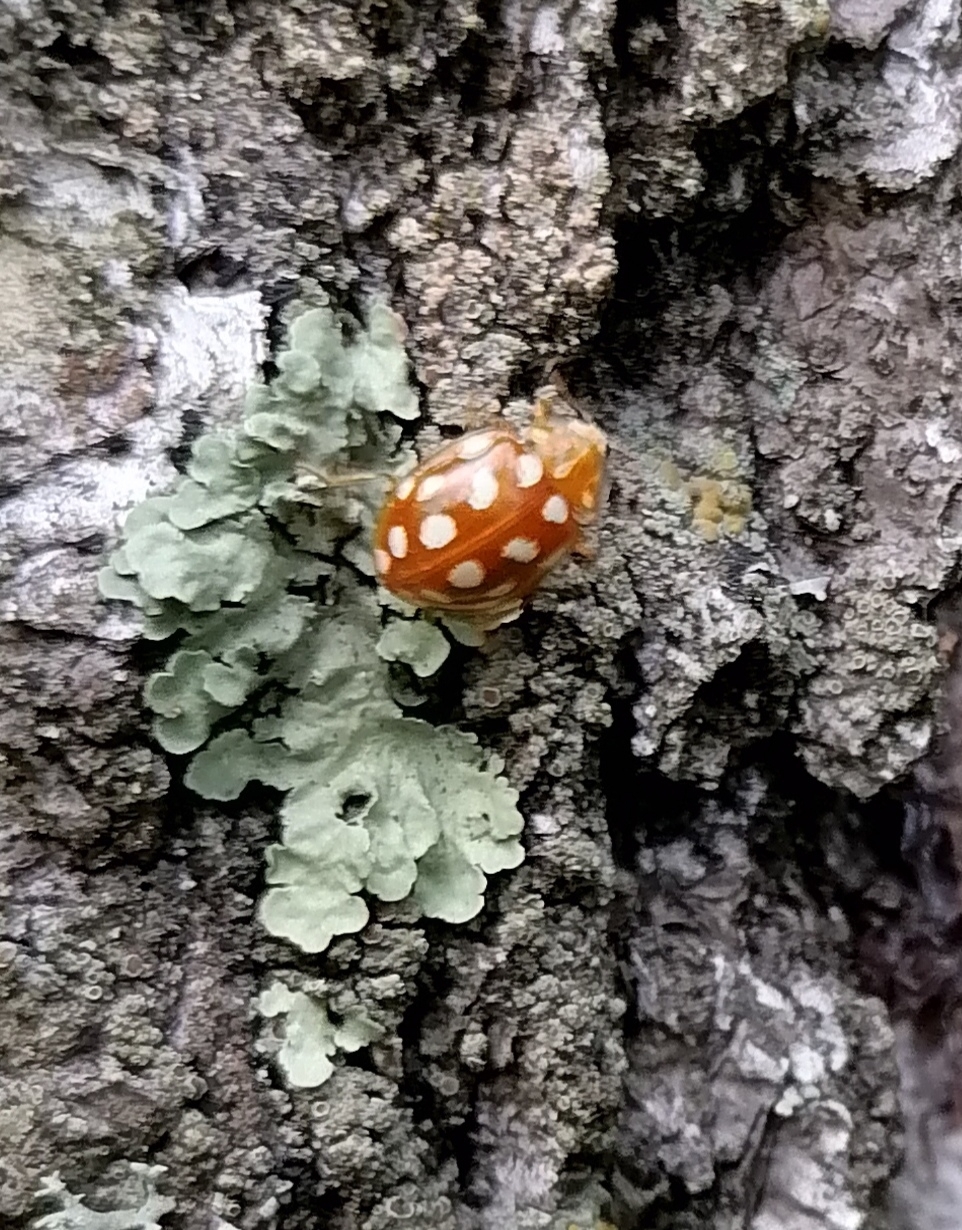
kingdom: Animalia
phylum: Arthropoda
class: Insecta
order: Coleoptera
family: Coccinellidae
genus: Halyzia
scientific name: Halyzia sedecimguttata
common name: Orange ladybird
